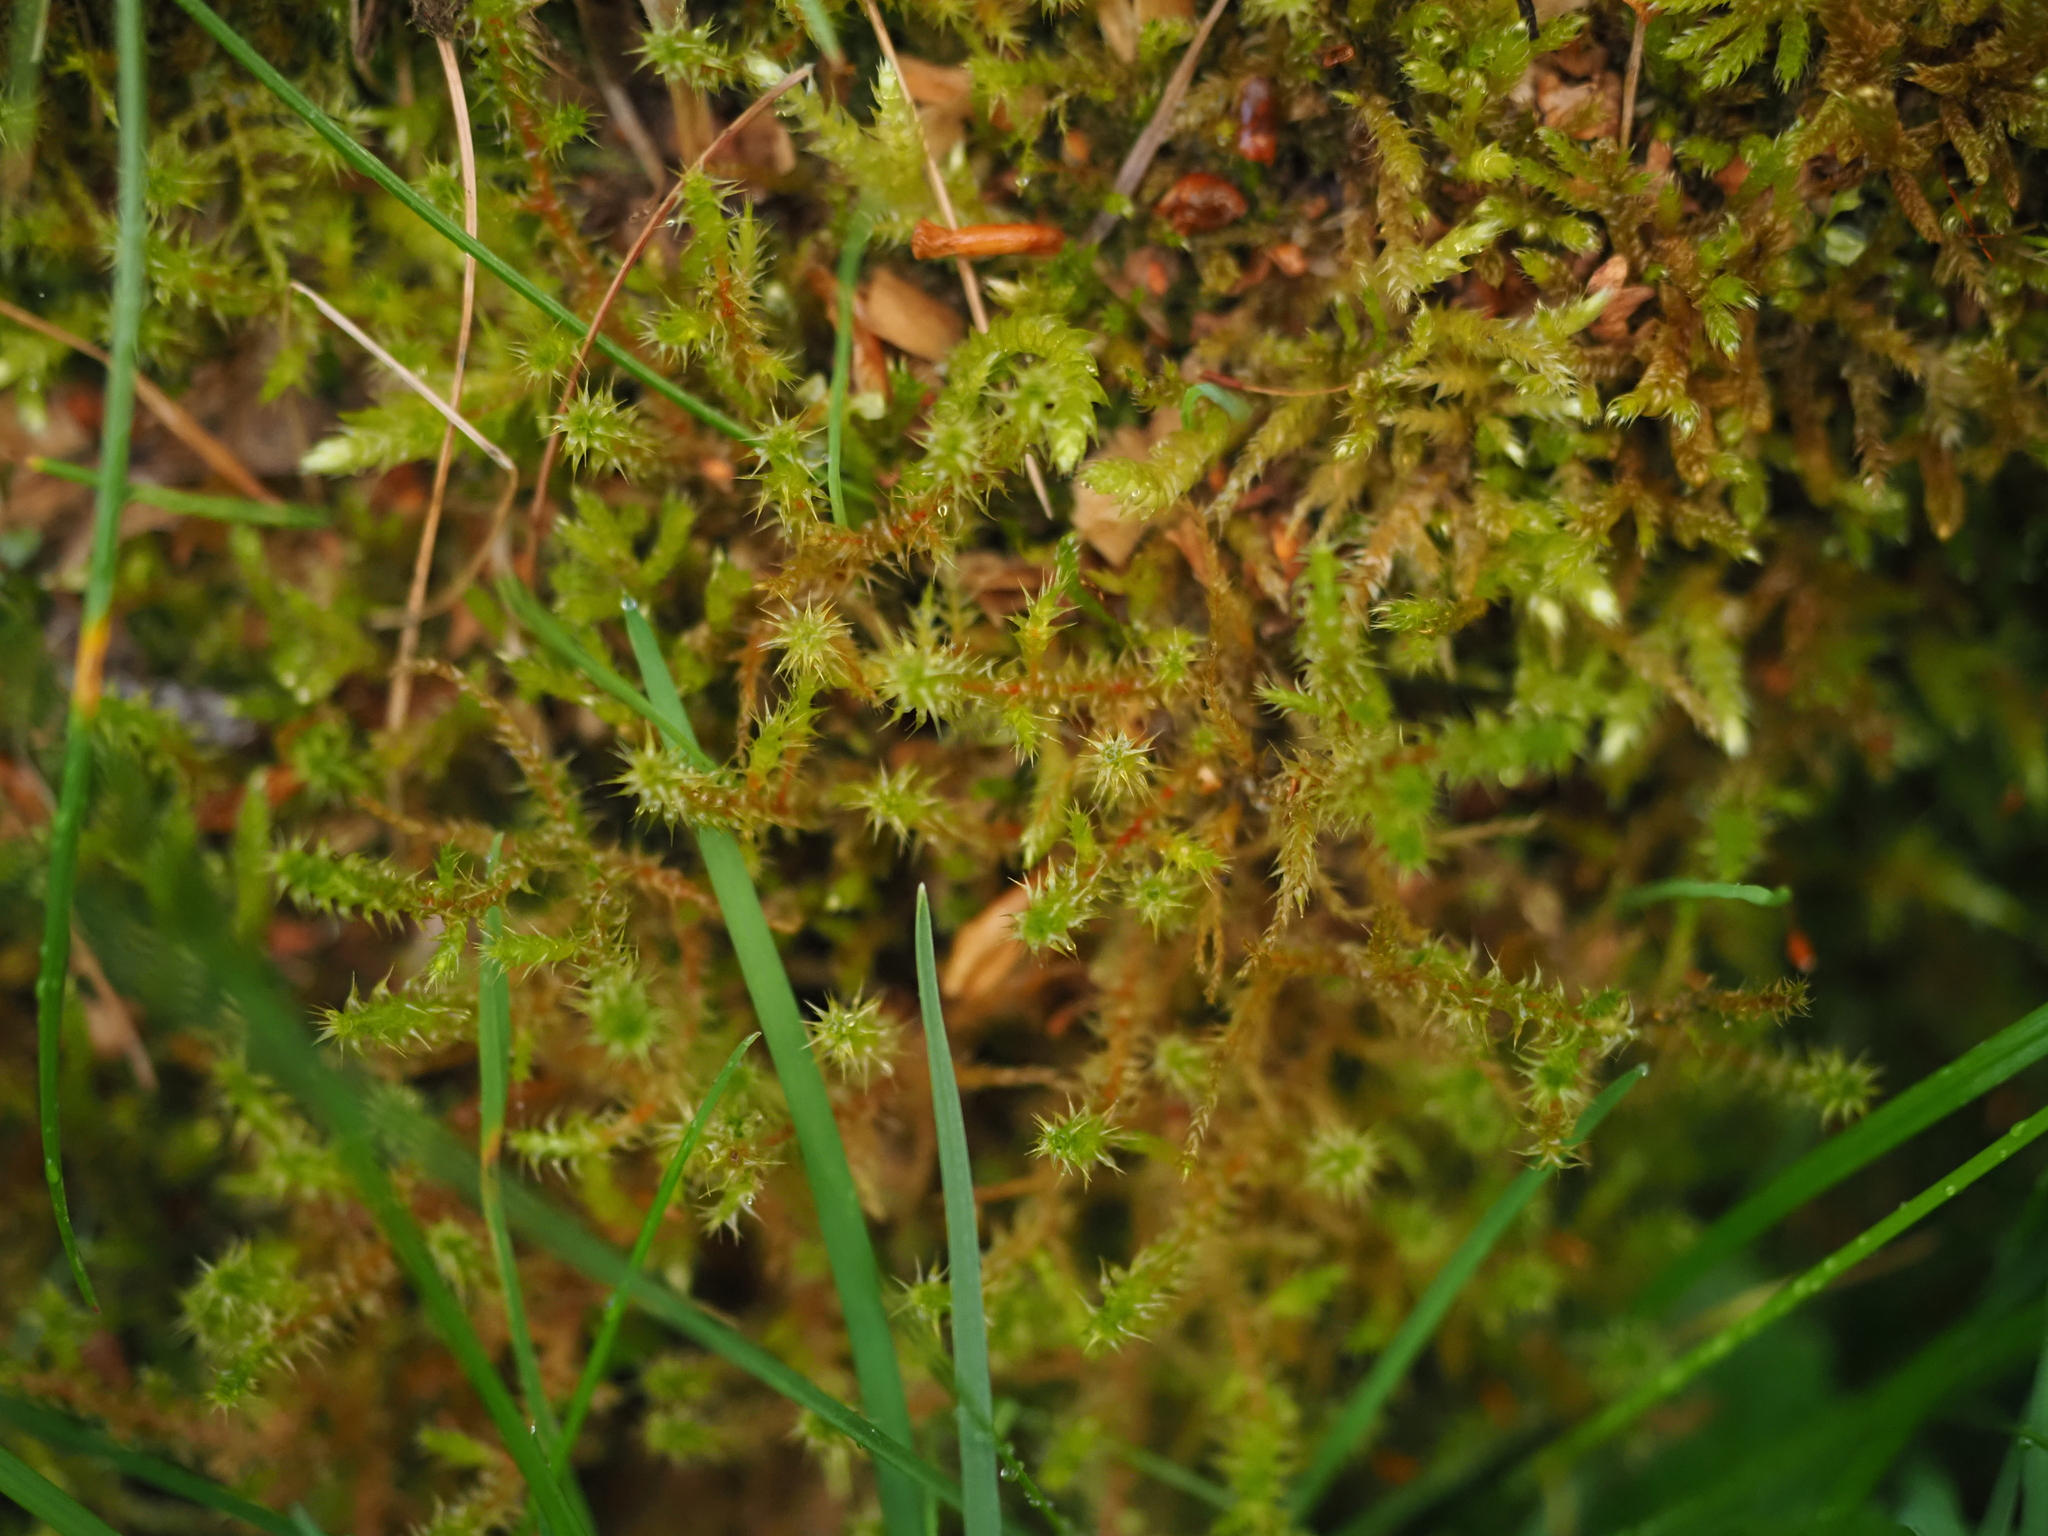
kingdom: Plantae
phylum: Bryophyta
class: Bryopsida
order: Hypnales
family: Hylocomiaceae
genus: Rhytidiadelphus
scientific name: Rhytidiadelphus squarrosus
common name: Springy turf-moss
